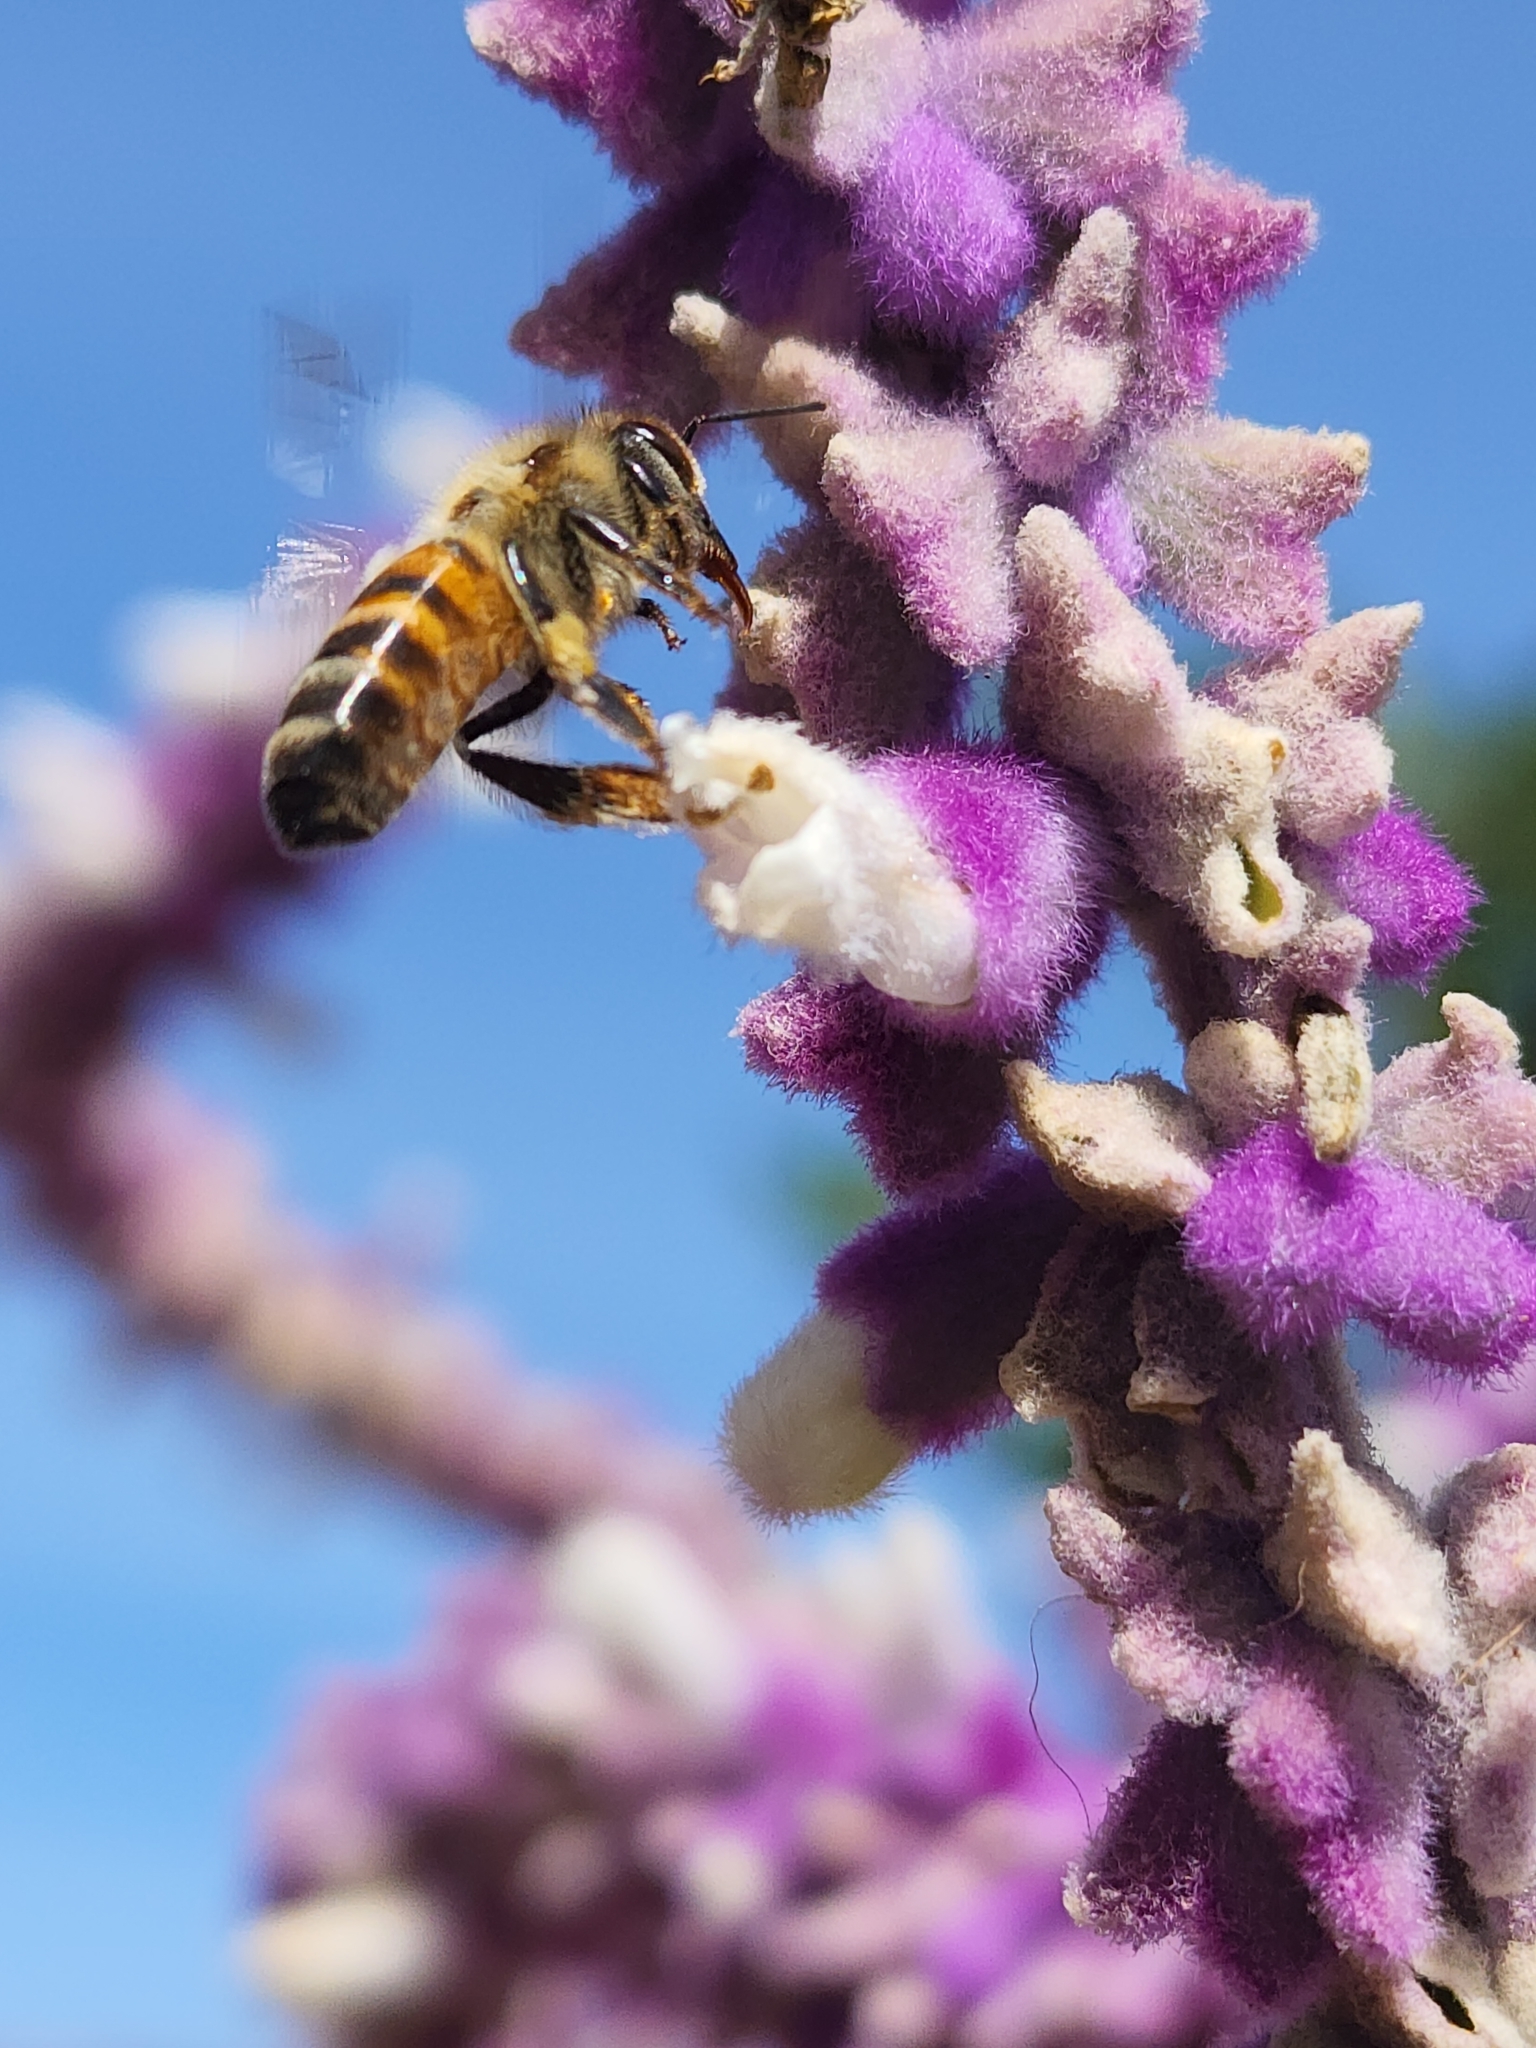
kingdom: Animalia
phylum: Arthropoda
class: Insecta
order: Hymenoptera
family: Apidae
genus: Apis
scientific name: Apis mellifera
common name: Honey bee
